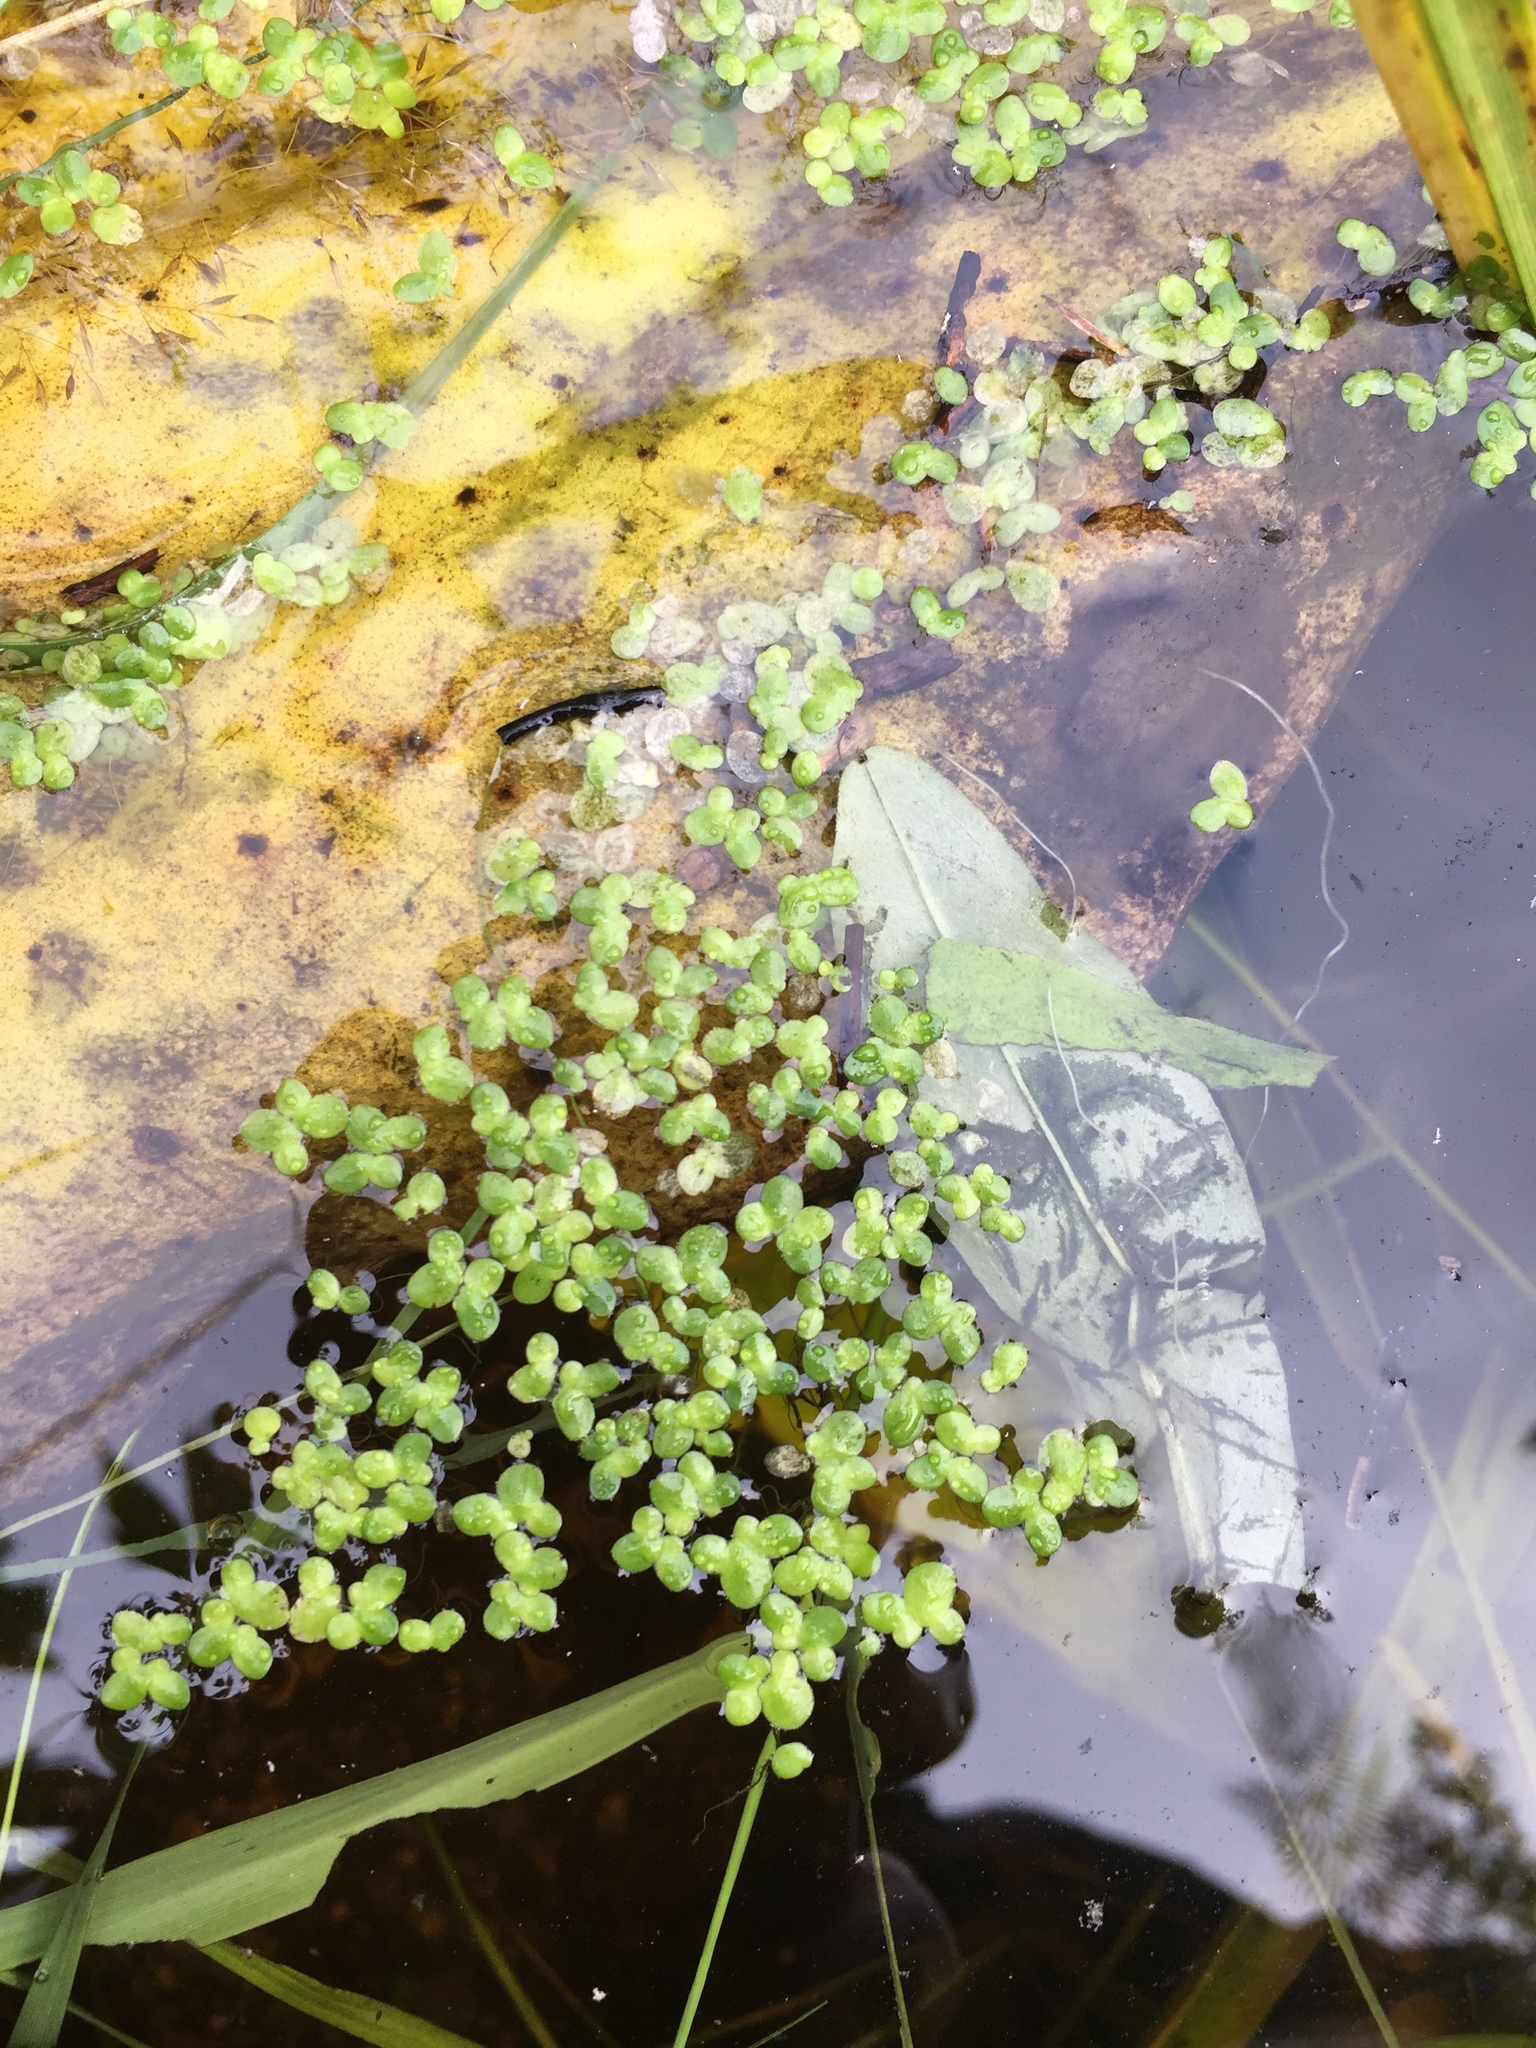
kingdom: Plantae
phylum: Tracheophyta
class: Liliopsida
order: Alismatales
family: Araceae
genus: Lemna
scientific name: Lemna minor
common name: Common duckweed
